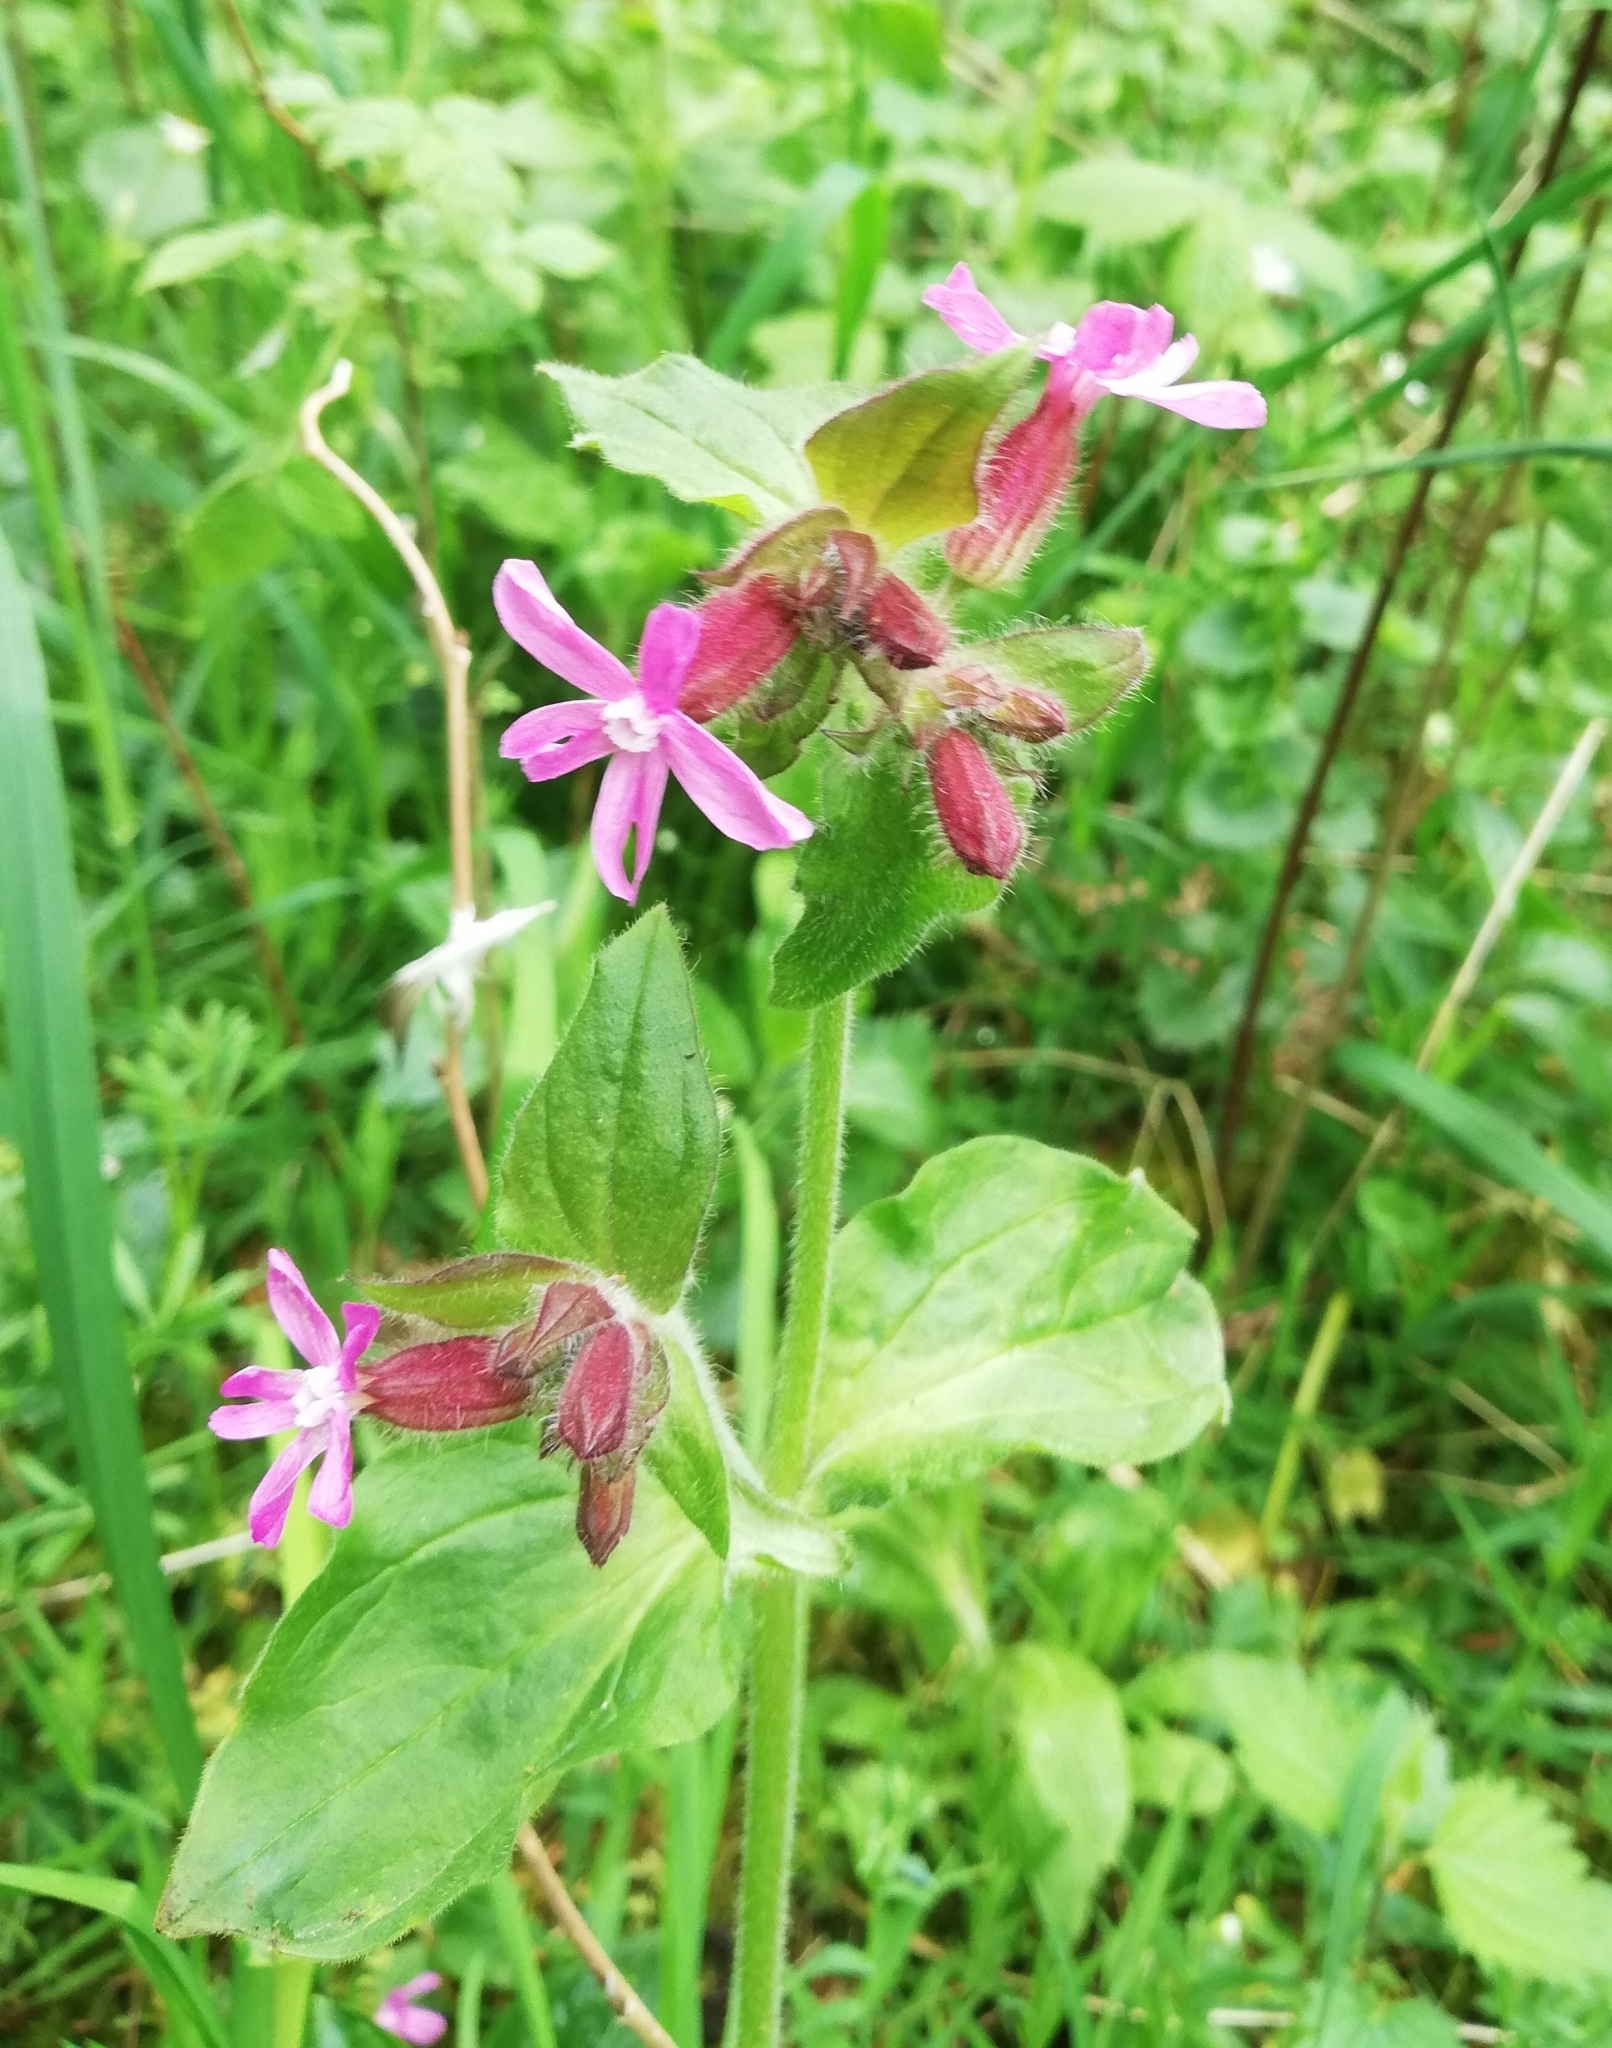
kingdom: Plantae
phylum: Tracheophyta
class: Magnoliopsida
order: Caryophyllales
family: Caryophyllaceae
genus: Silene
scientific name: Silene dioica
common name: Red campion
